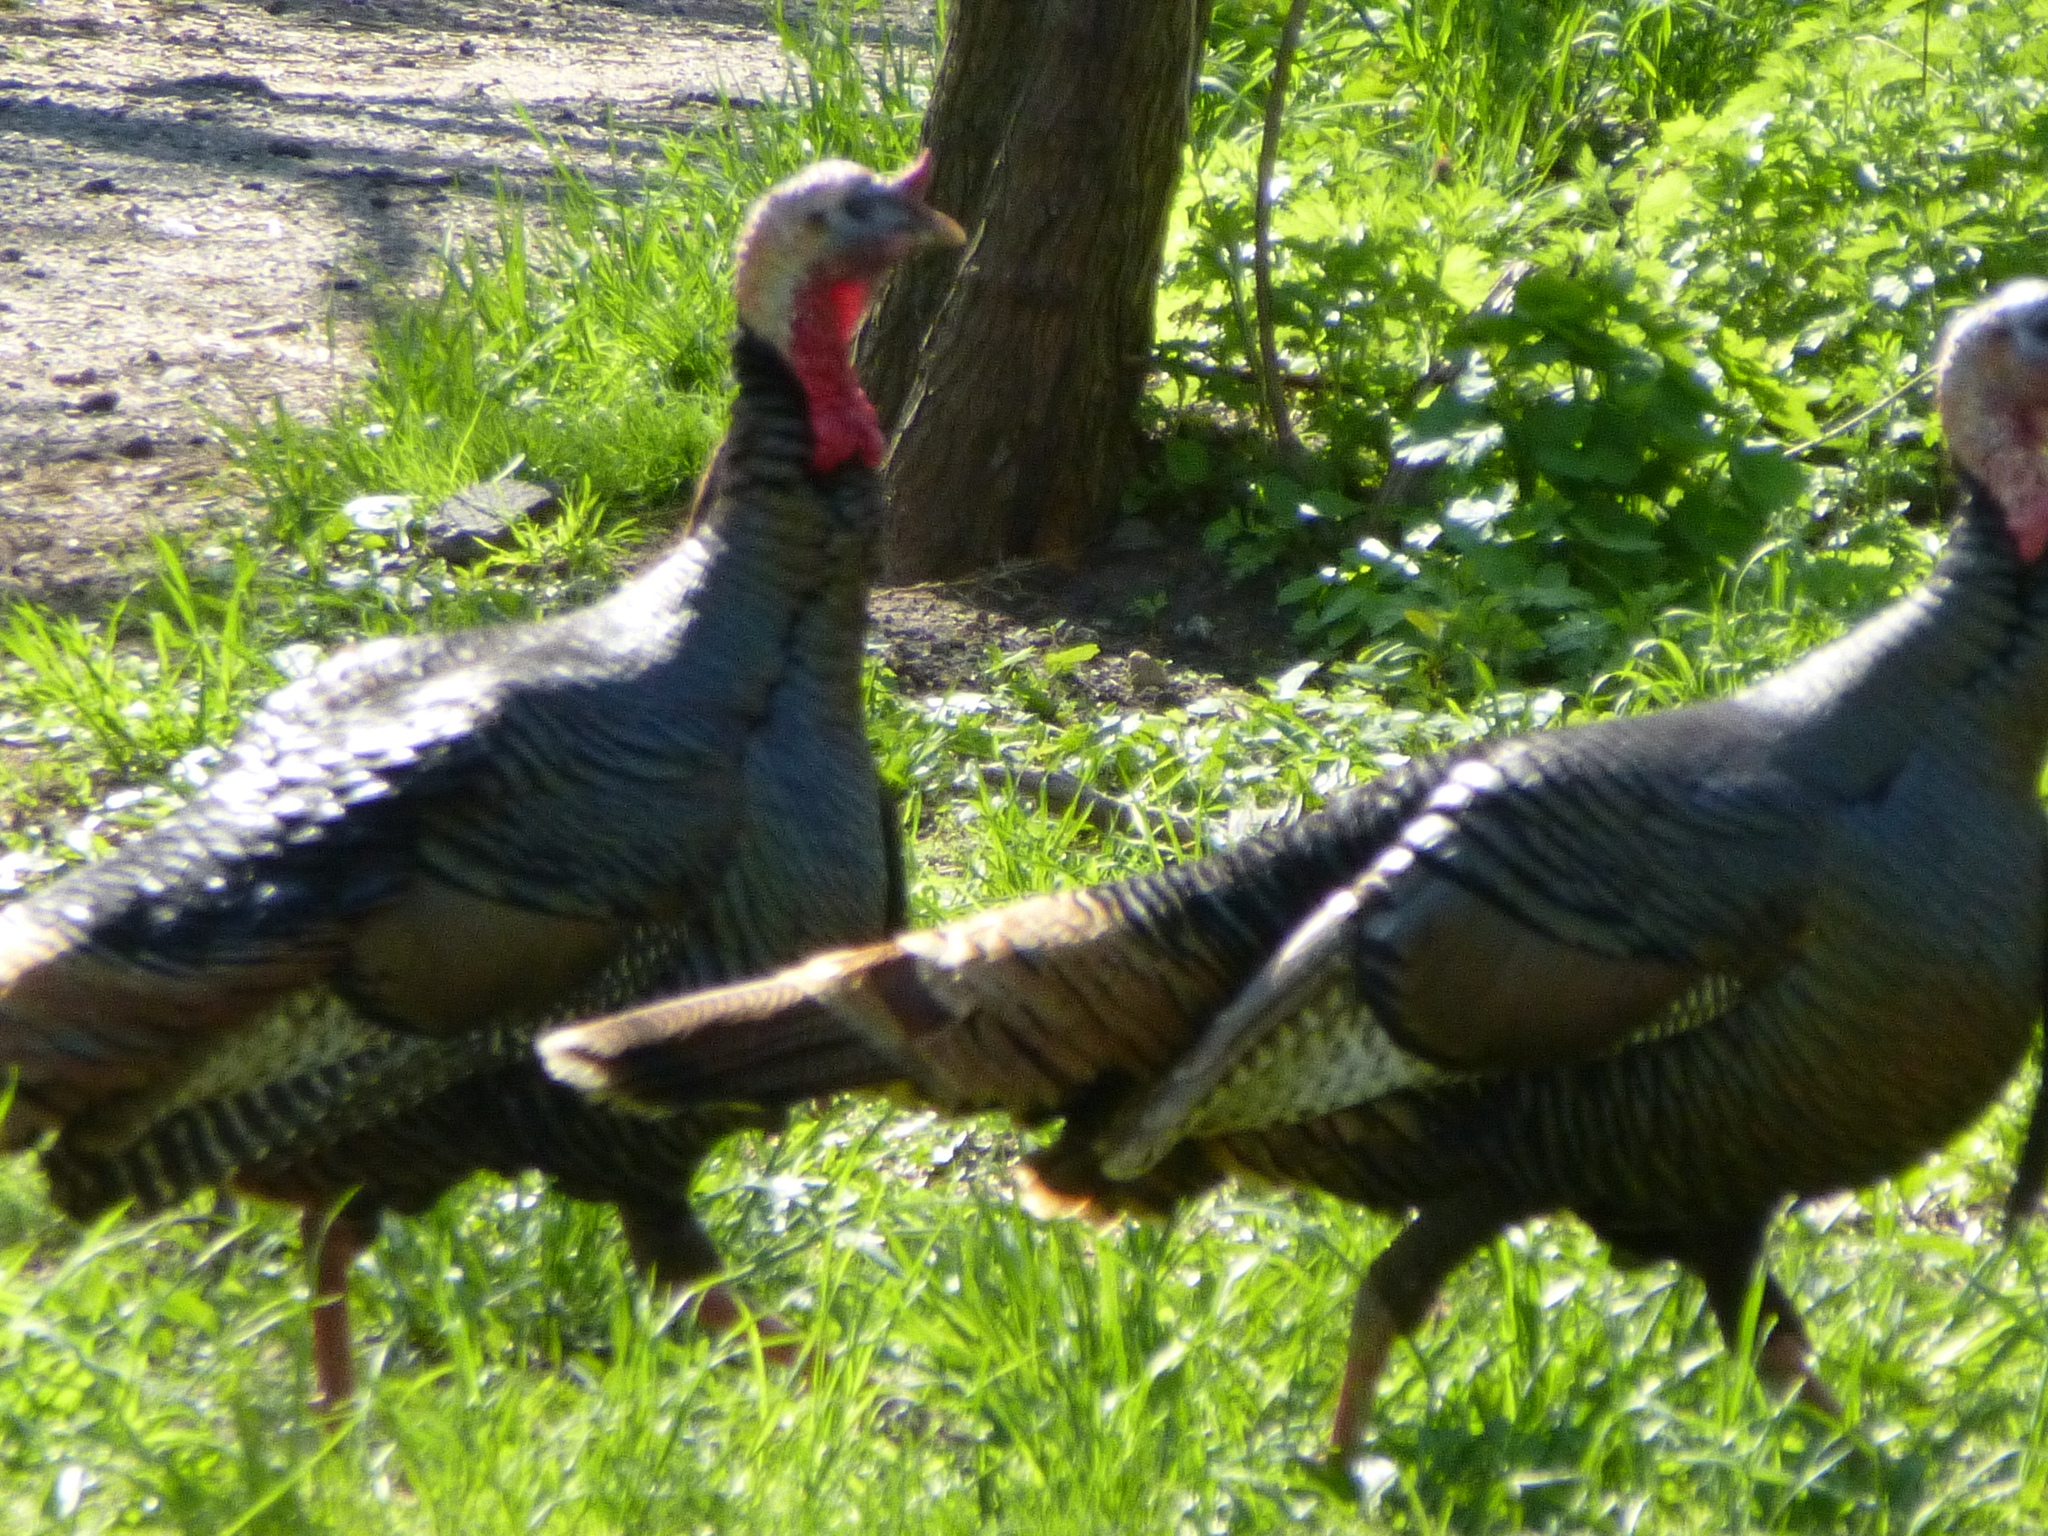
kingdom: Animalia
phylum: Chordata
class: Aves
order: Galliformes
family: Phasianidae
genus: Meleagris
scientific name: Meleagris gallopavo
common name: Wild turkey
